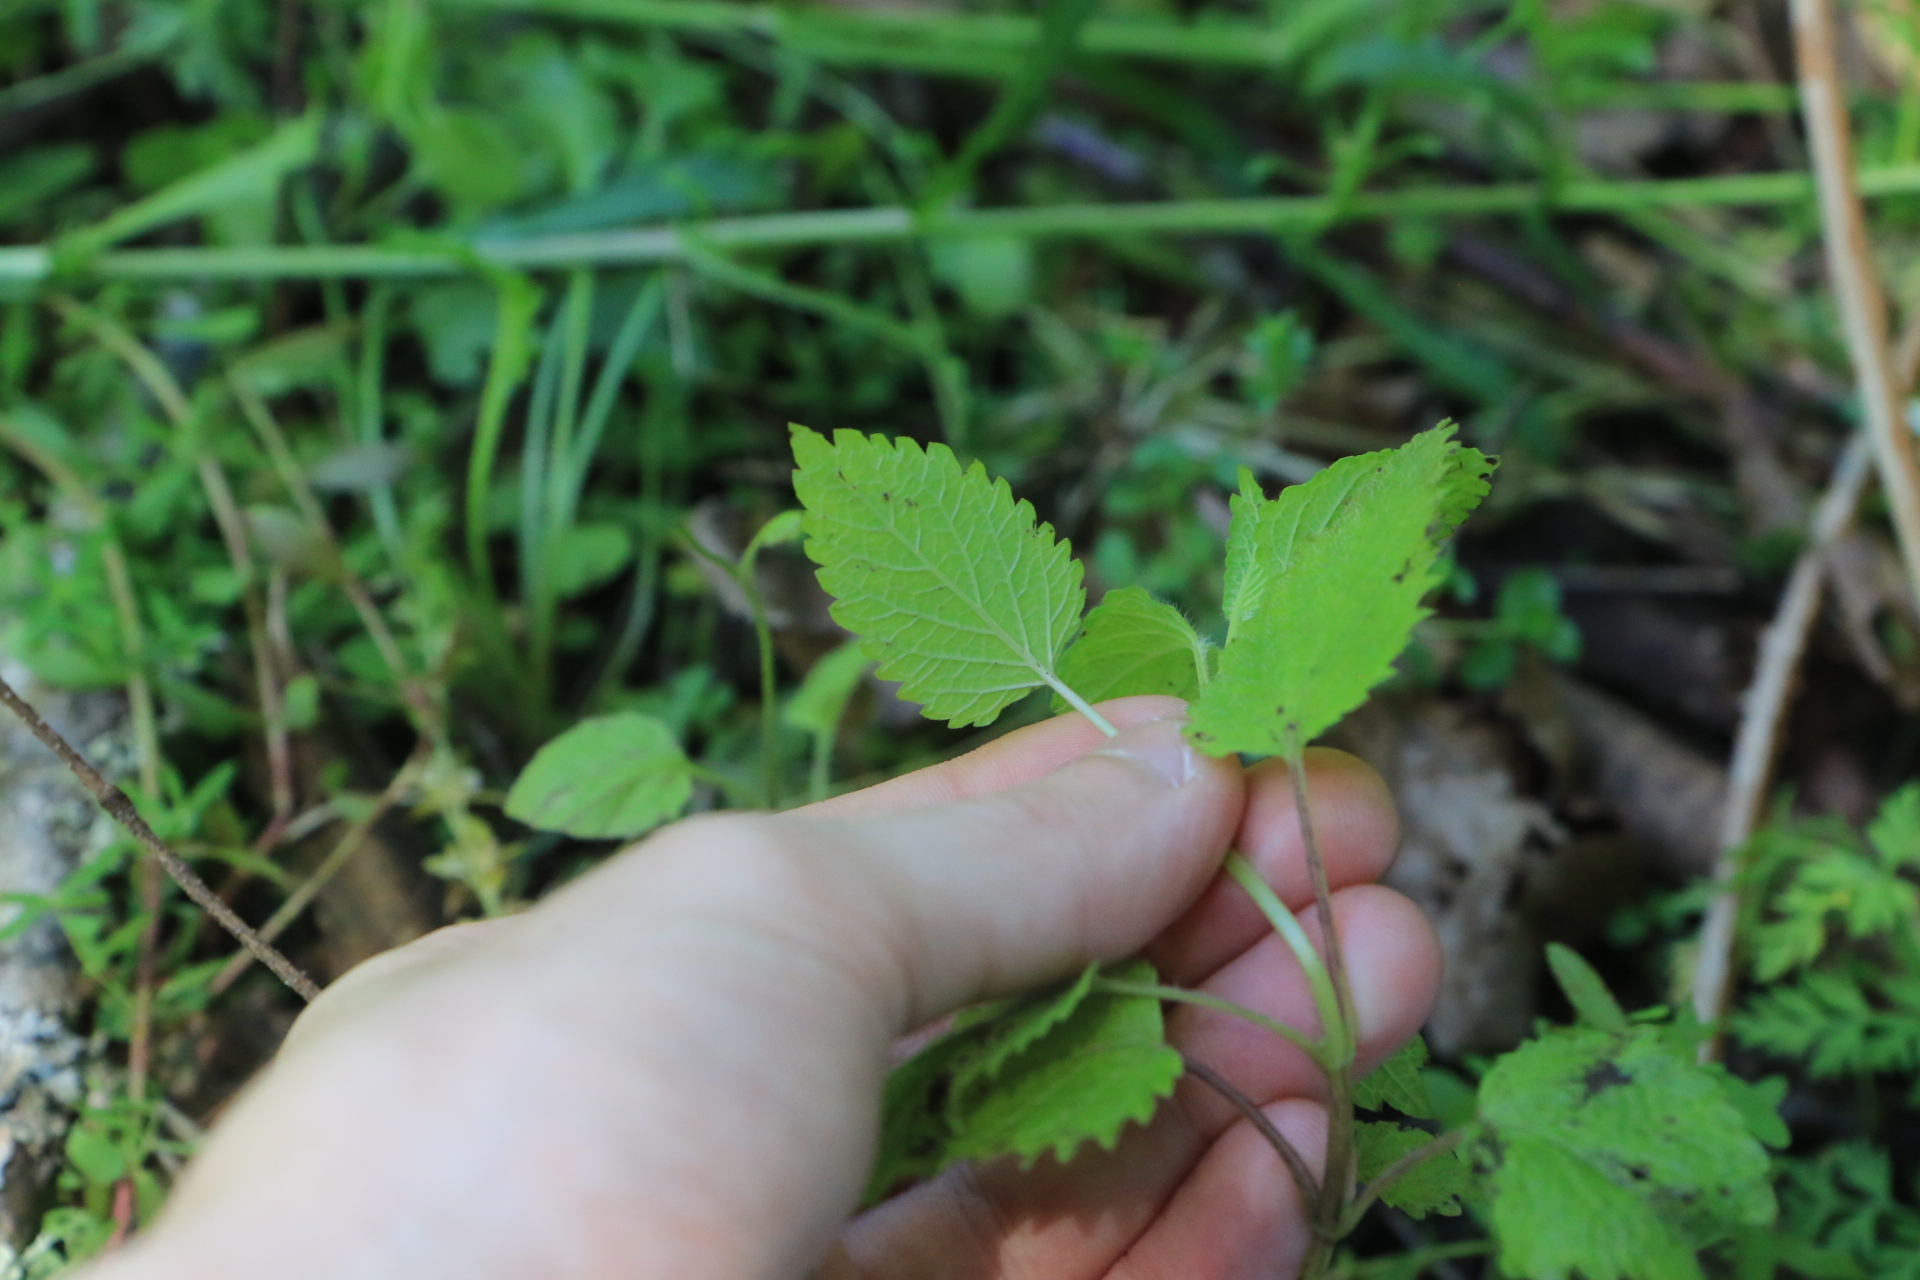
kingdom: Plantae
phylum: Tracheophyta
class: Magnoliopsida
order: Lamiales
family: Lamiaceae
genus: Melissa
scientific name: Melissa officinalis
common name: Balm
